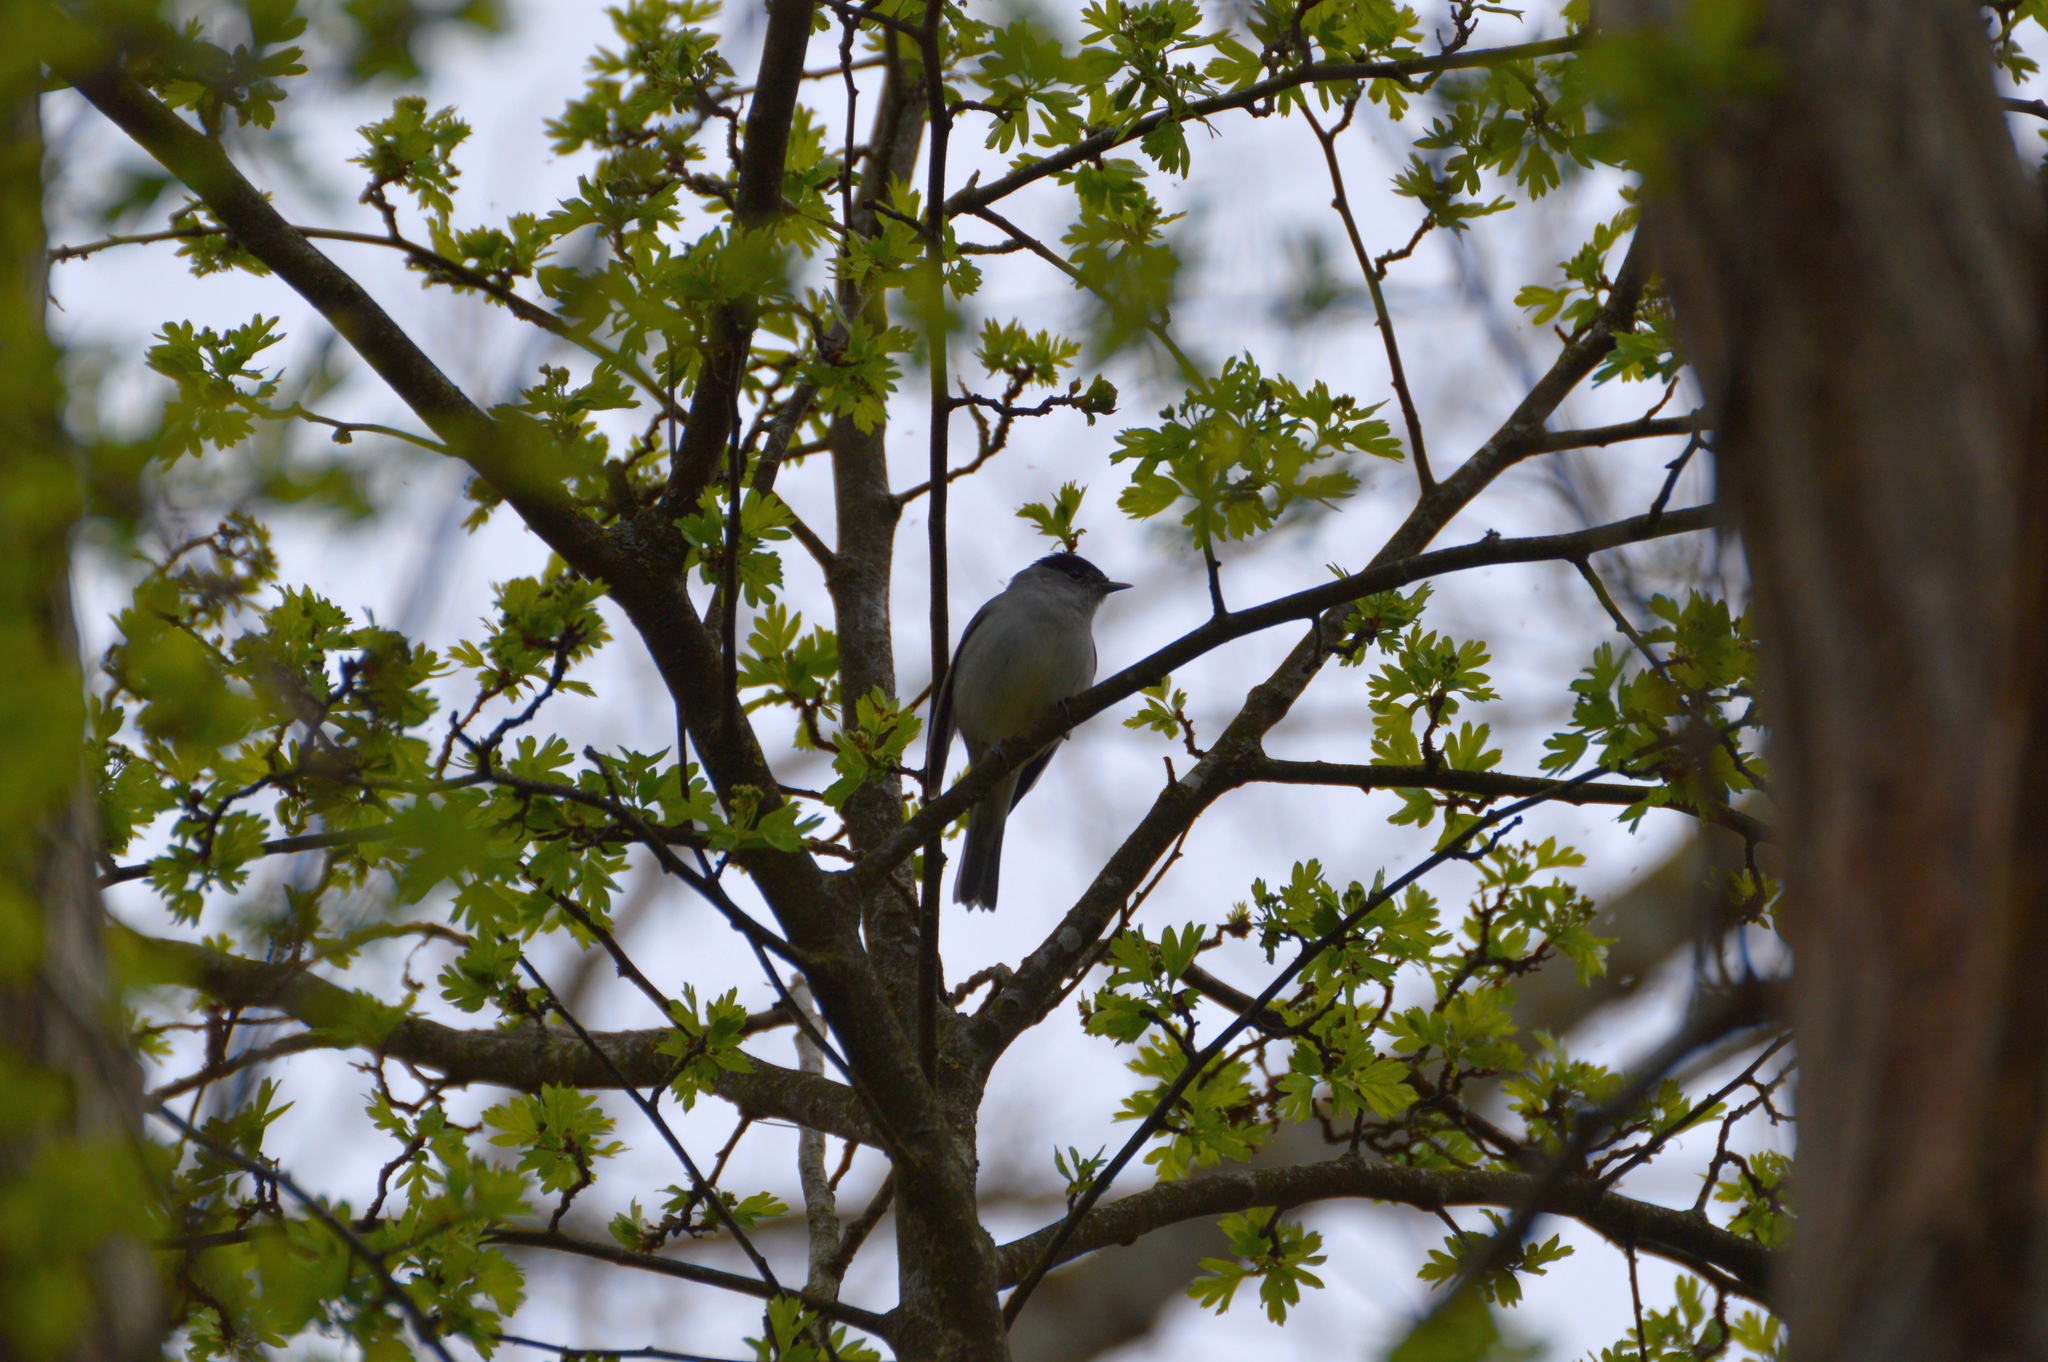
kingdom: Animalia
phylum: Chordata
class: Aves
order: Passeriformes
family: Sylviidae
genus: Sylvia
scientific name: Sylvia atricapilla
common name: Eurasian blackcap
